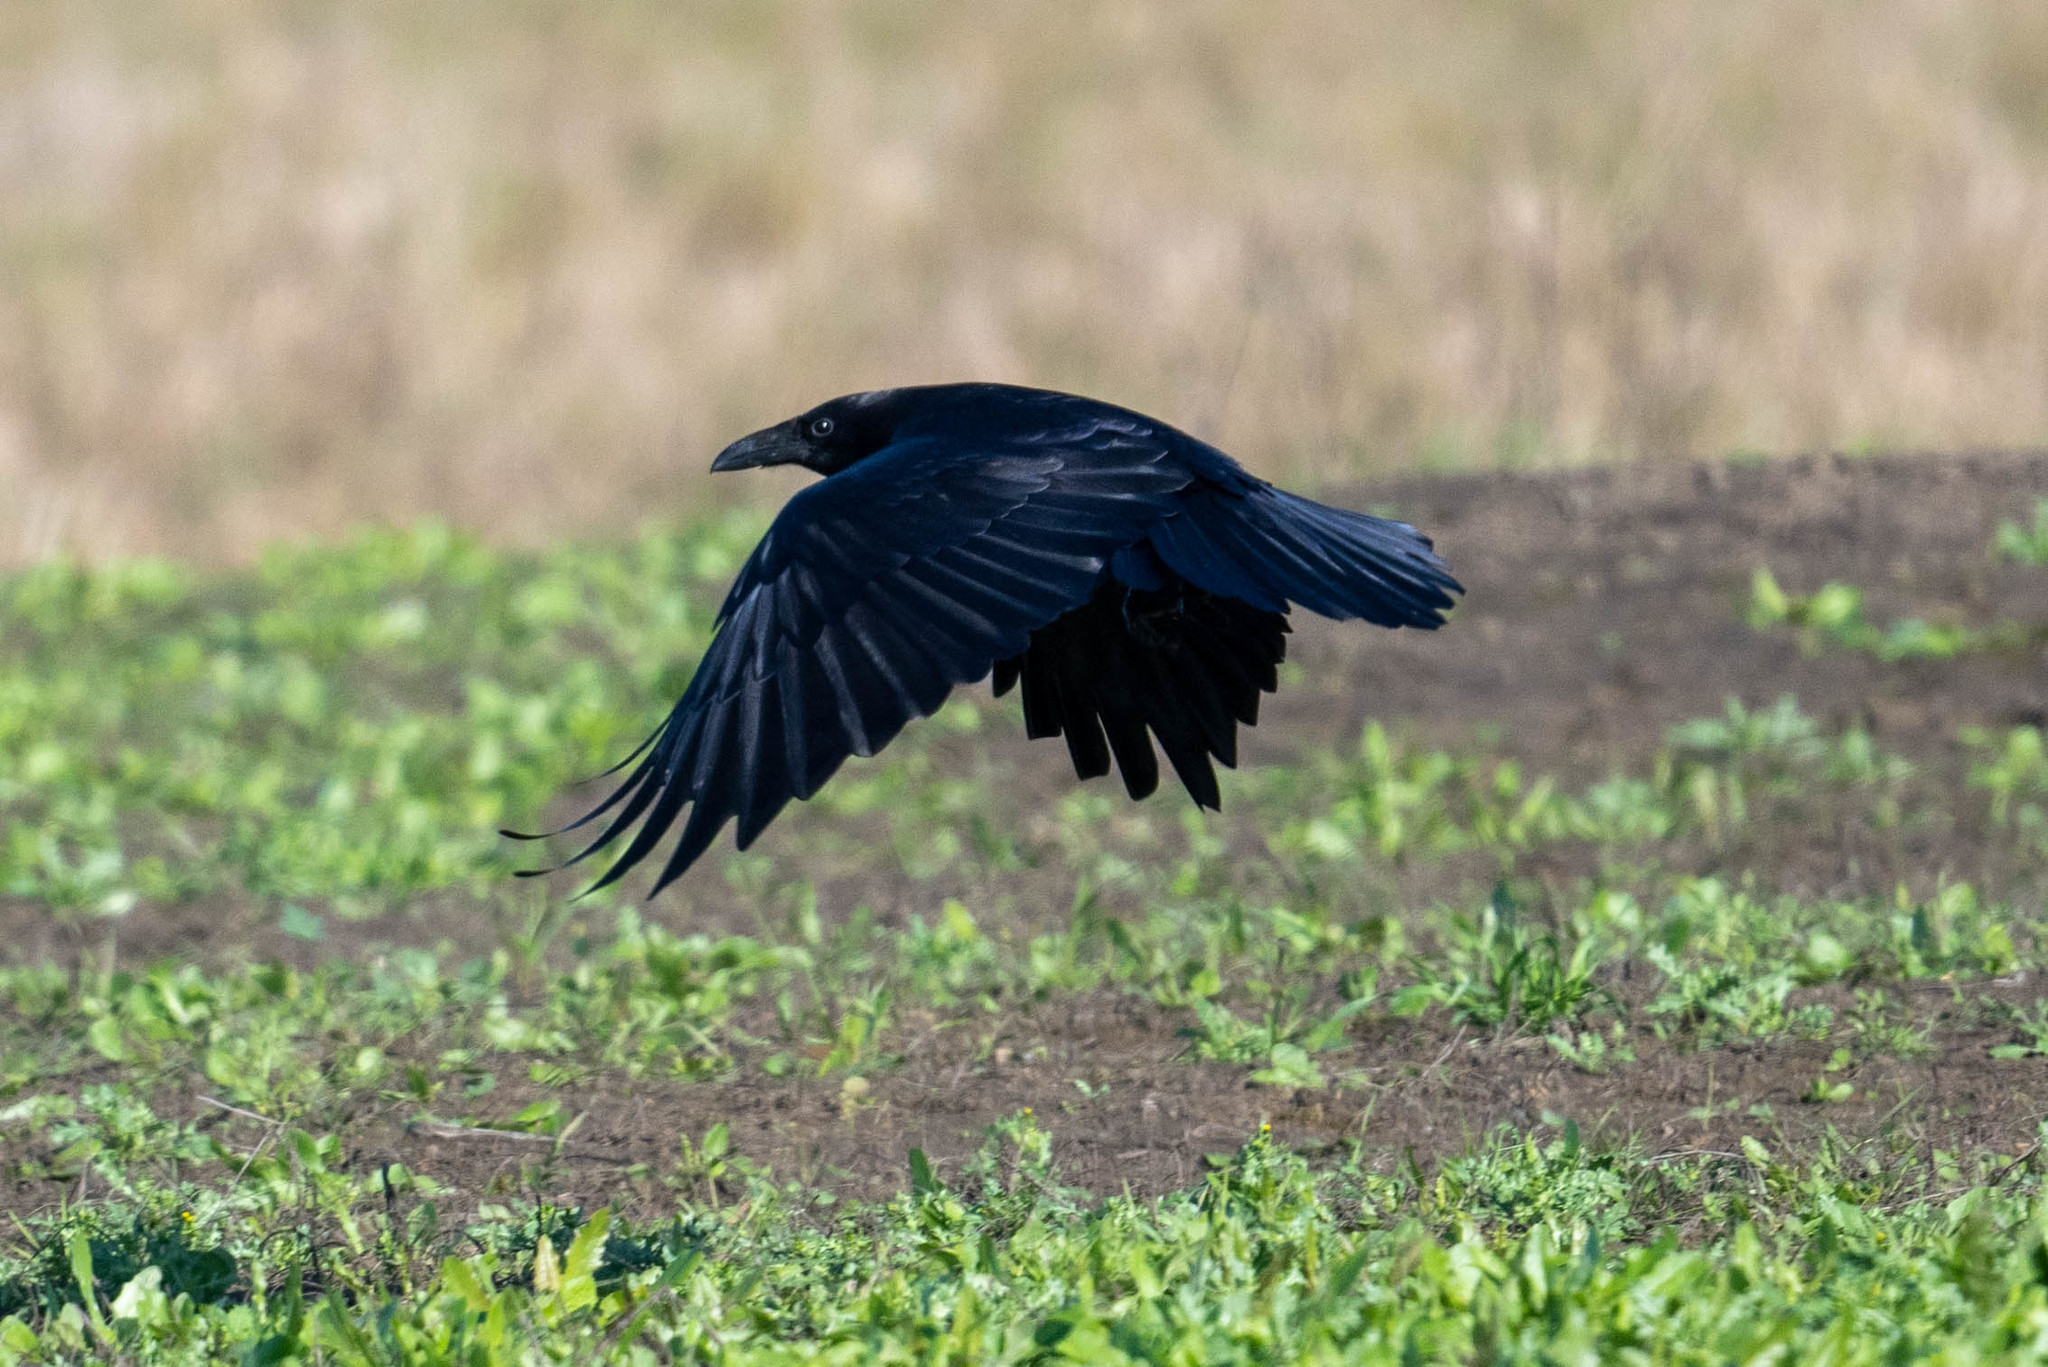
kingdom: Animalia
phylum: Chordata
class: Aves
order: Passeriformes
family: Corvidae
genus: Corvus
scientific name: Corvus corax
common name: Common raven
